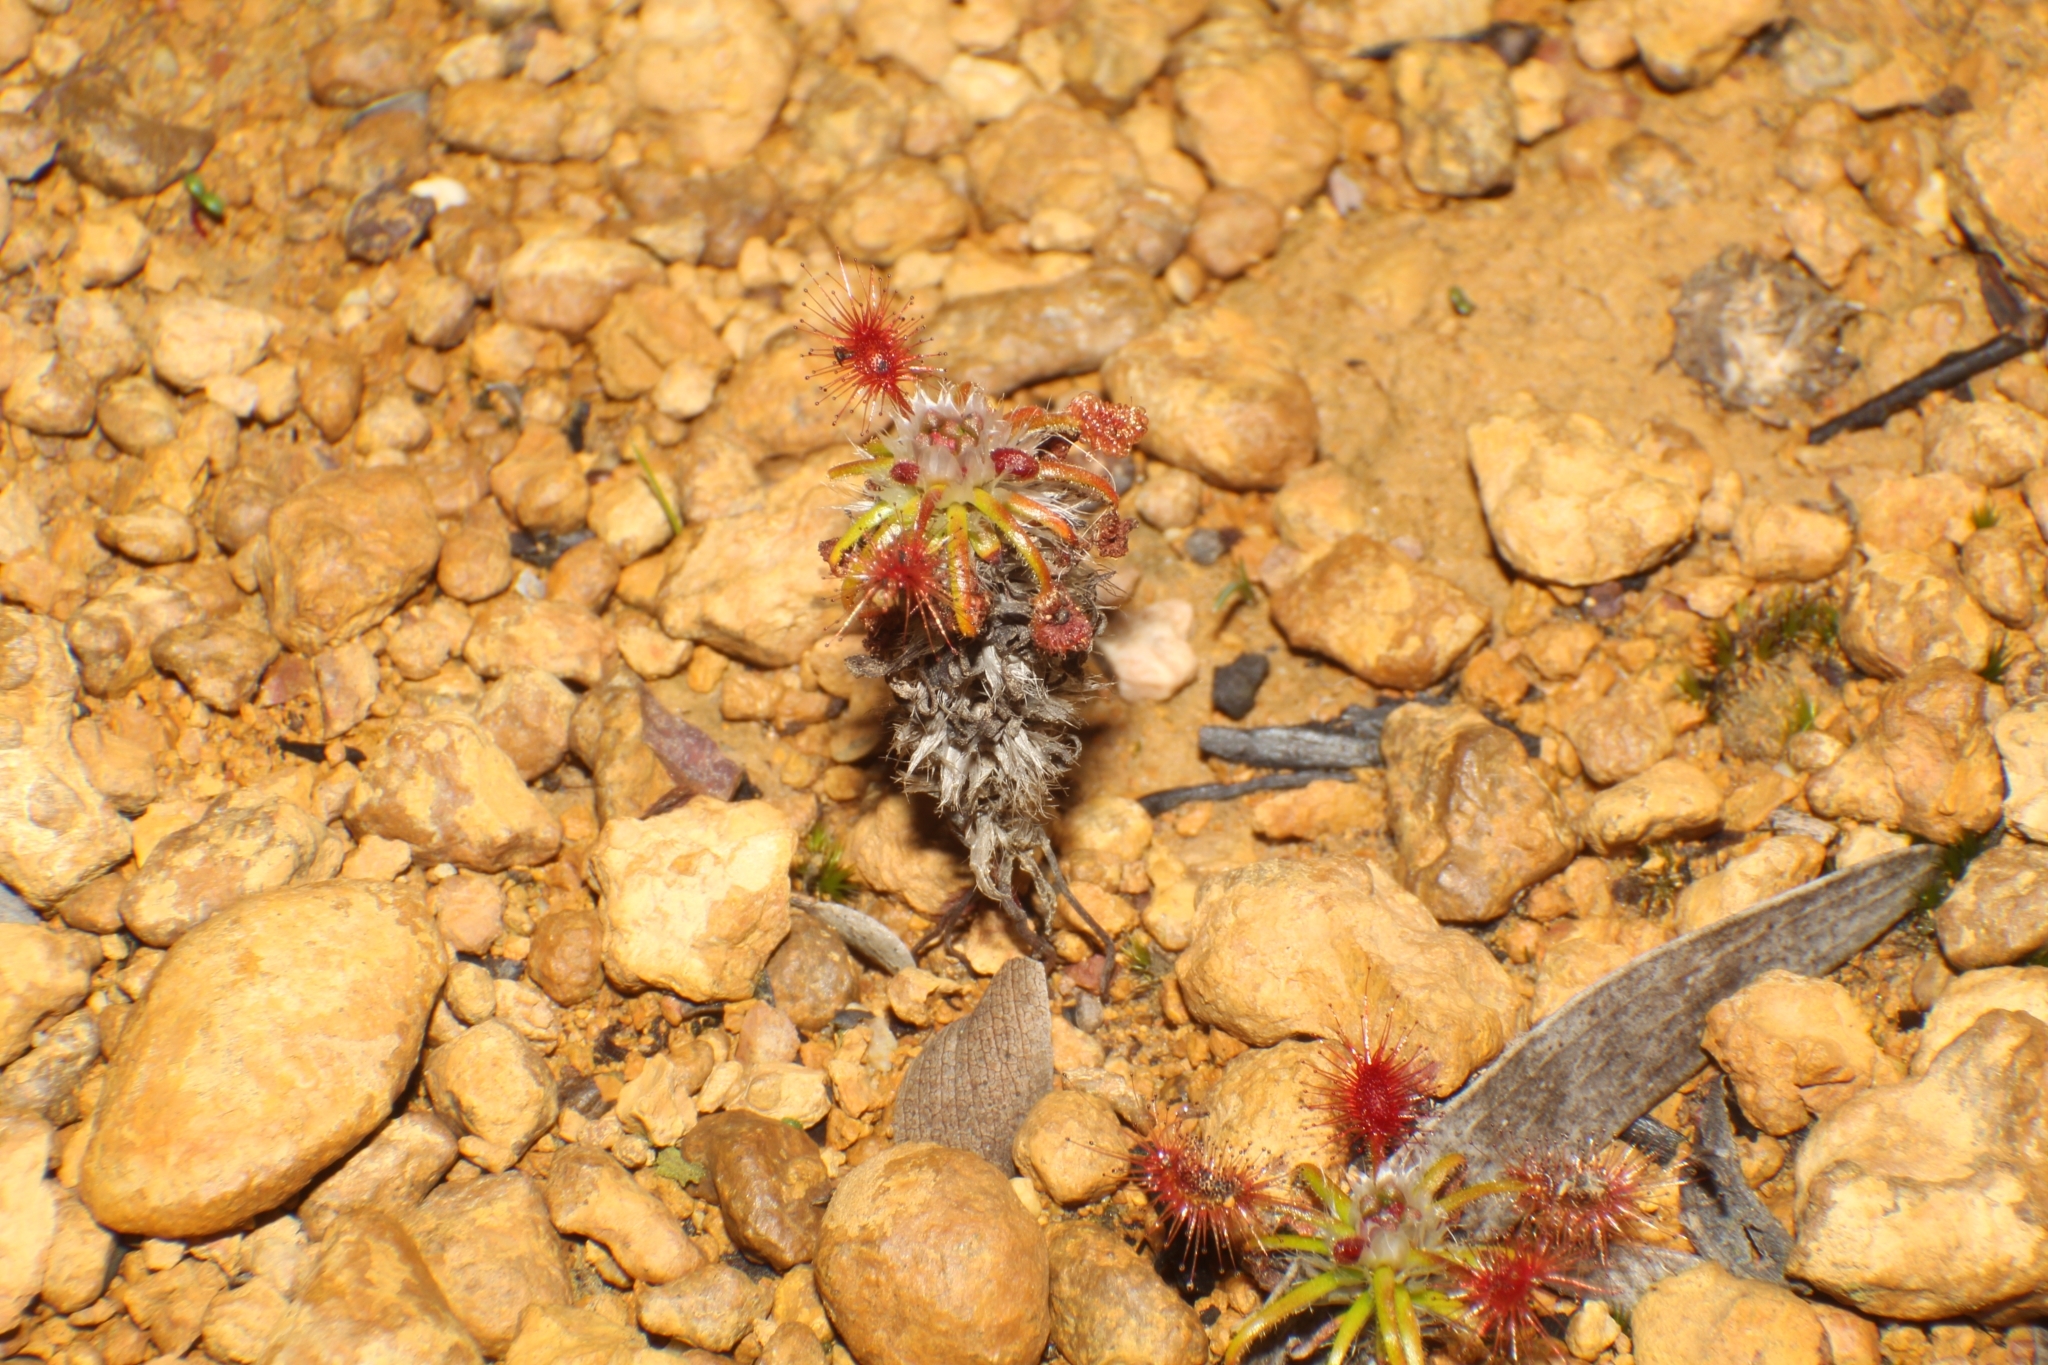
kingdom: Plantae
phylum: Tracheophyta
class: Magnoliopsida
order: Caryophyllales
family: Droseraceae
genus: Drosera
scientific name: Drosera gibsonii
